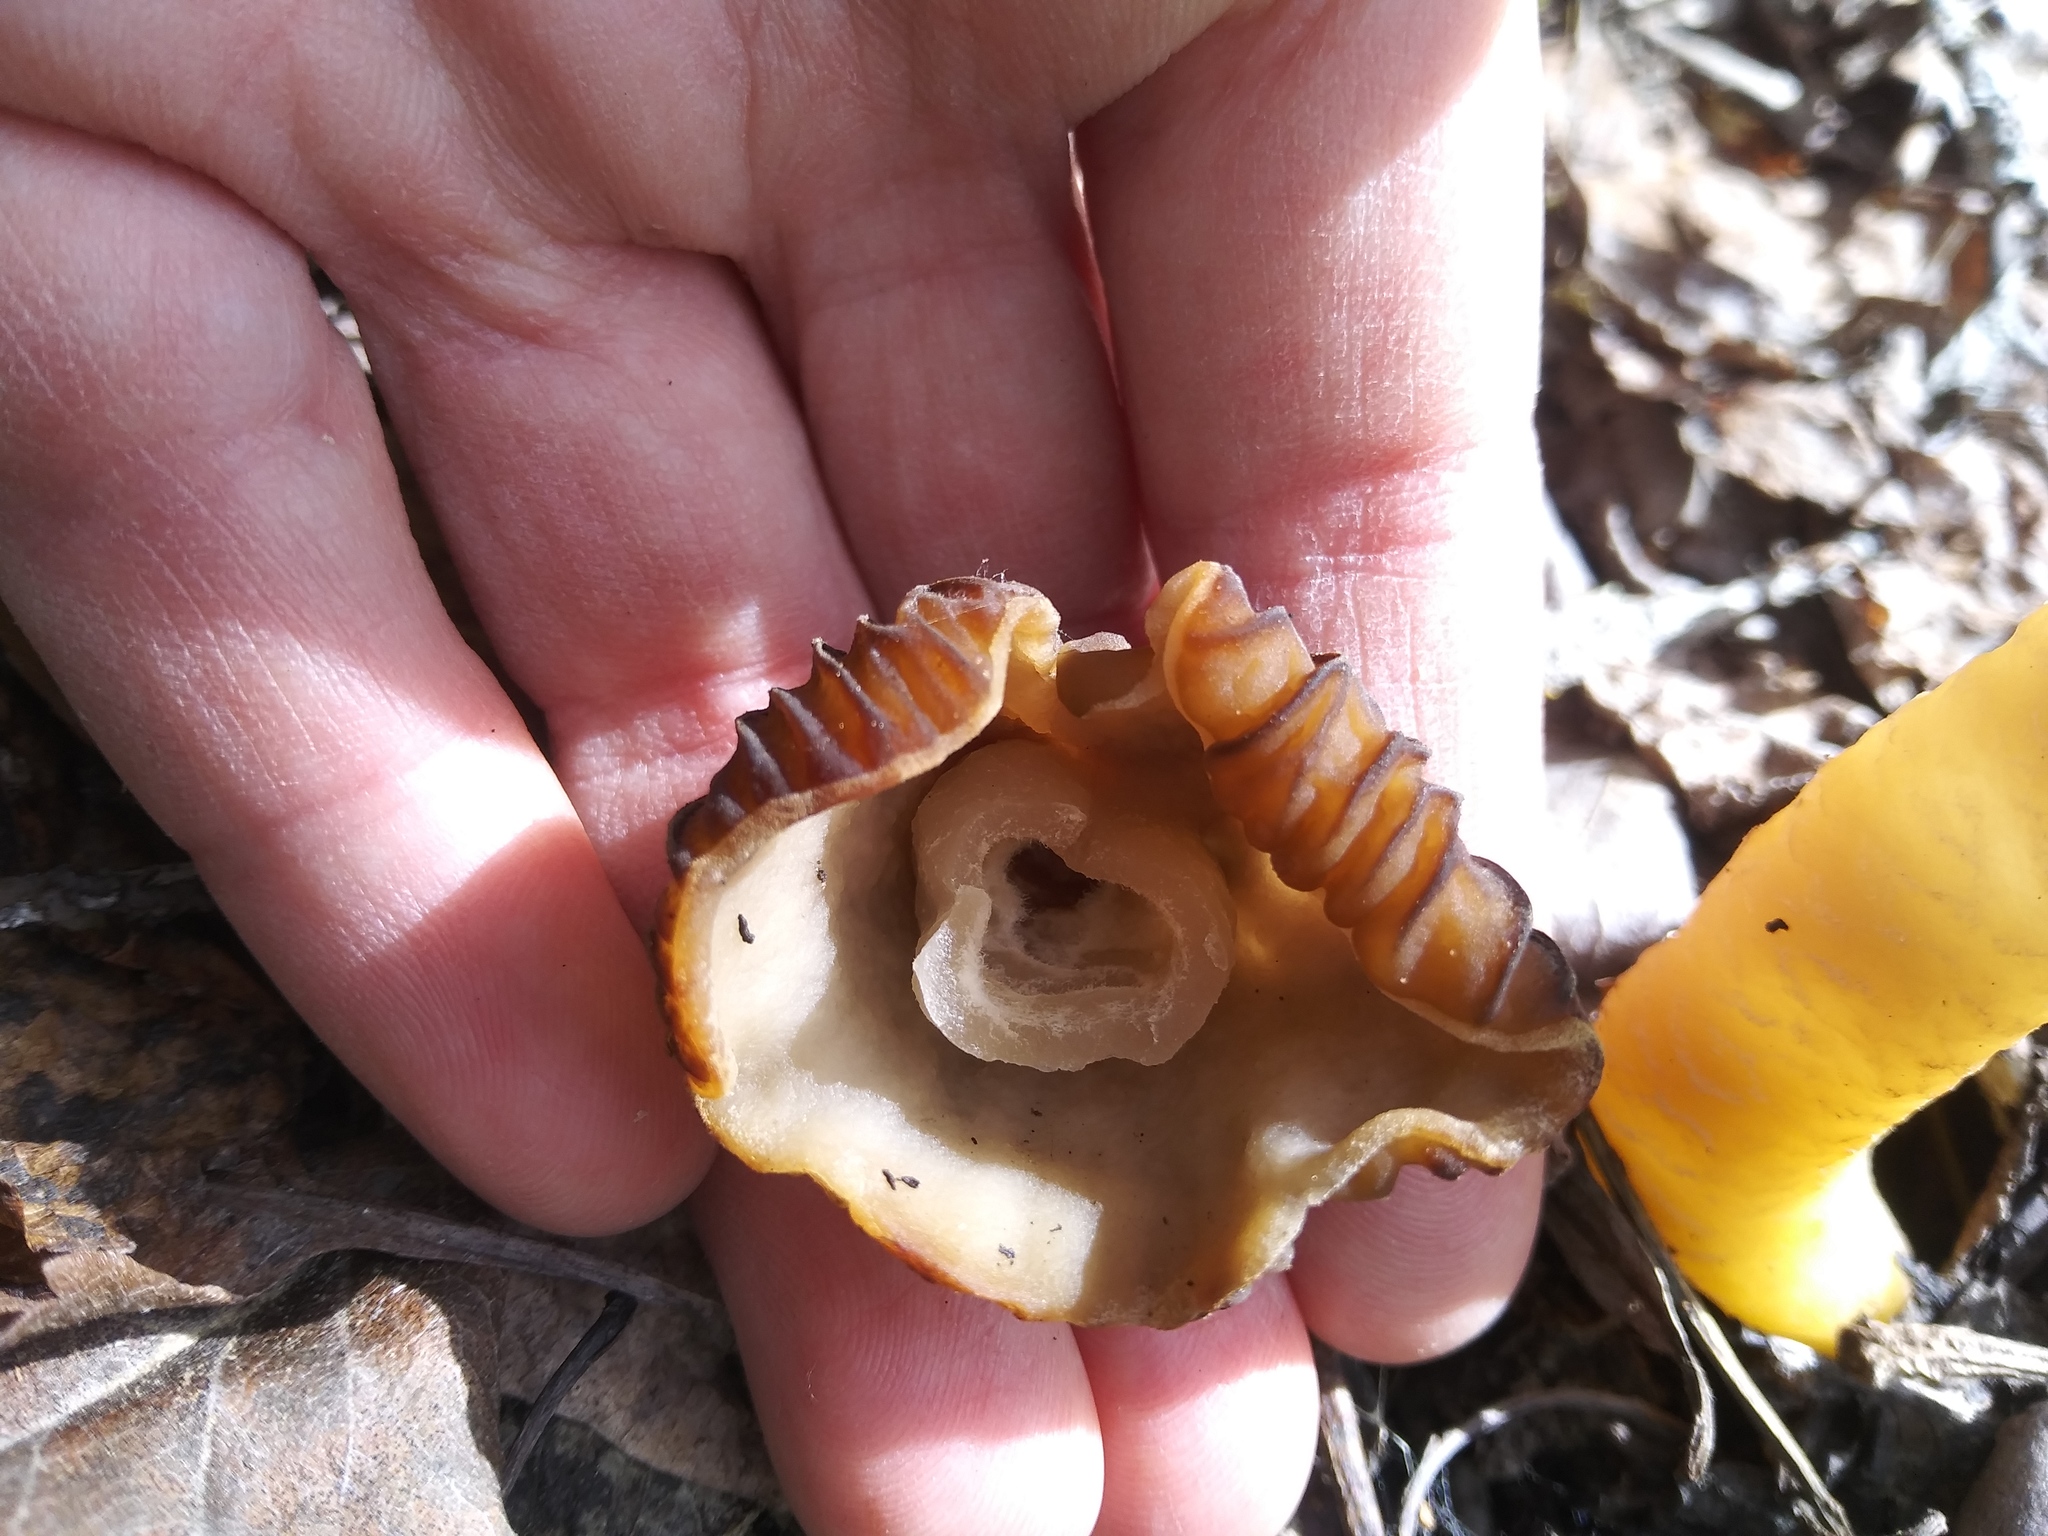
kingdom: Fungi
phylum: Ascomycota
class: Pezizomycetes
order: Pezizales
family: Morchellaceae
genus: Verpa
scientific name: Verpa bohemica
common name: Wrinkled thimble morel
